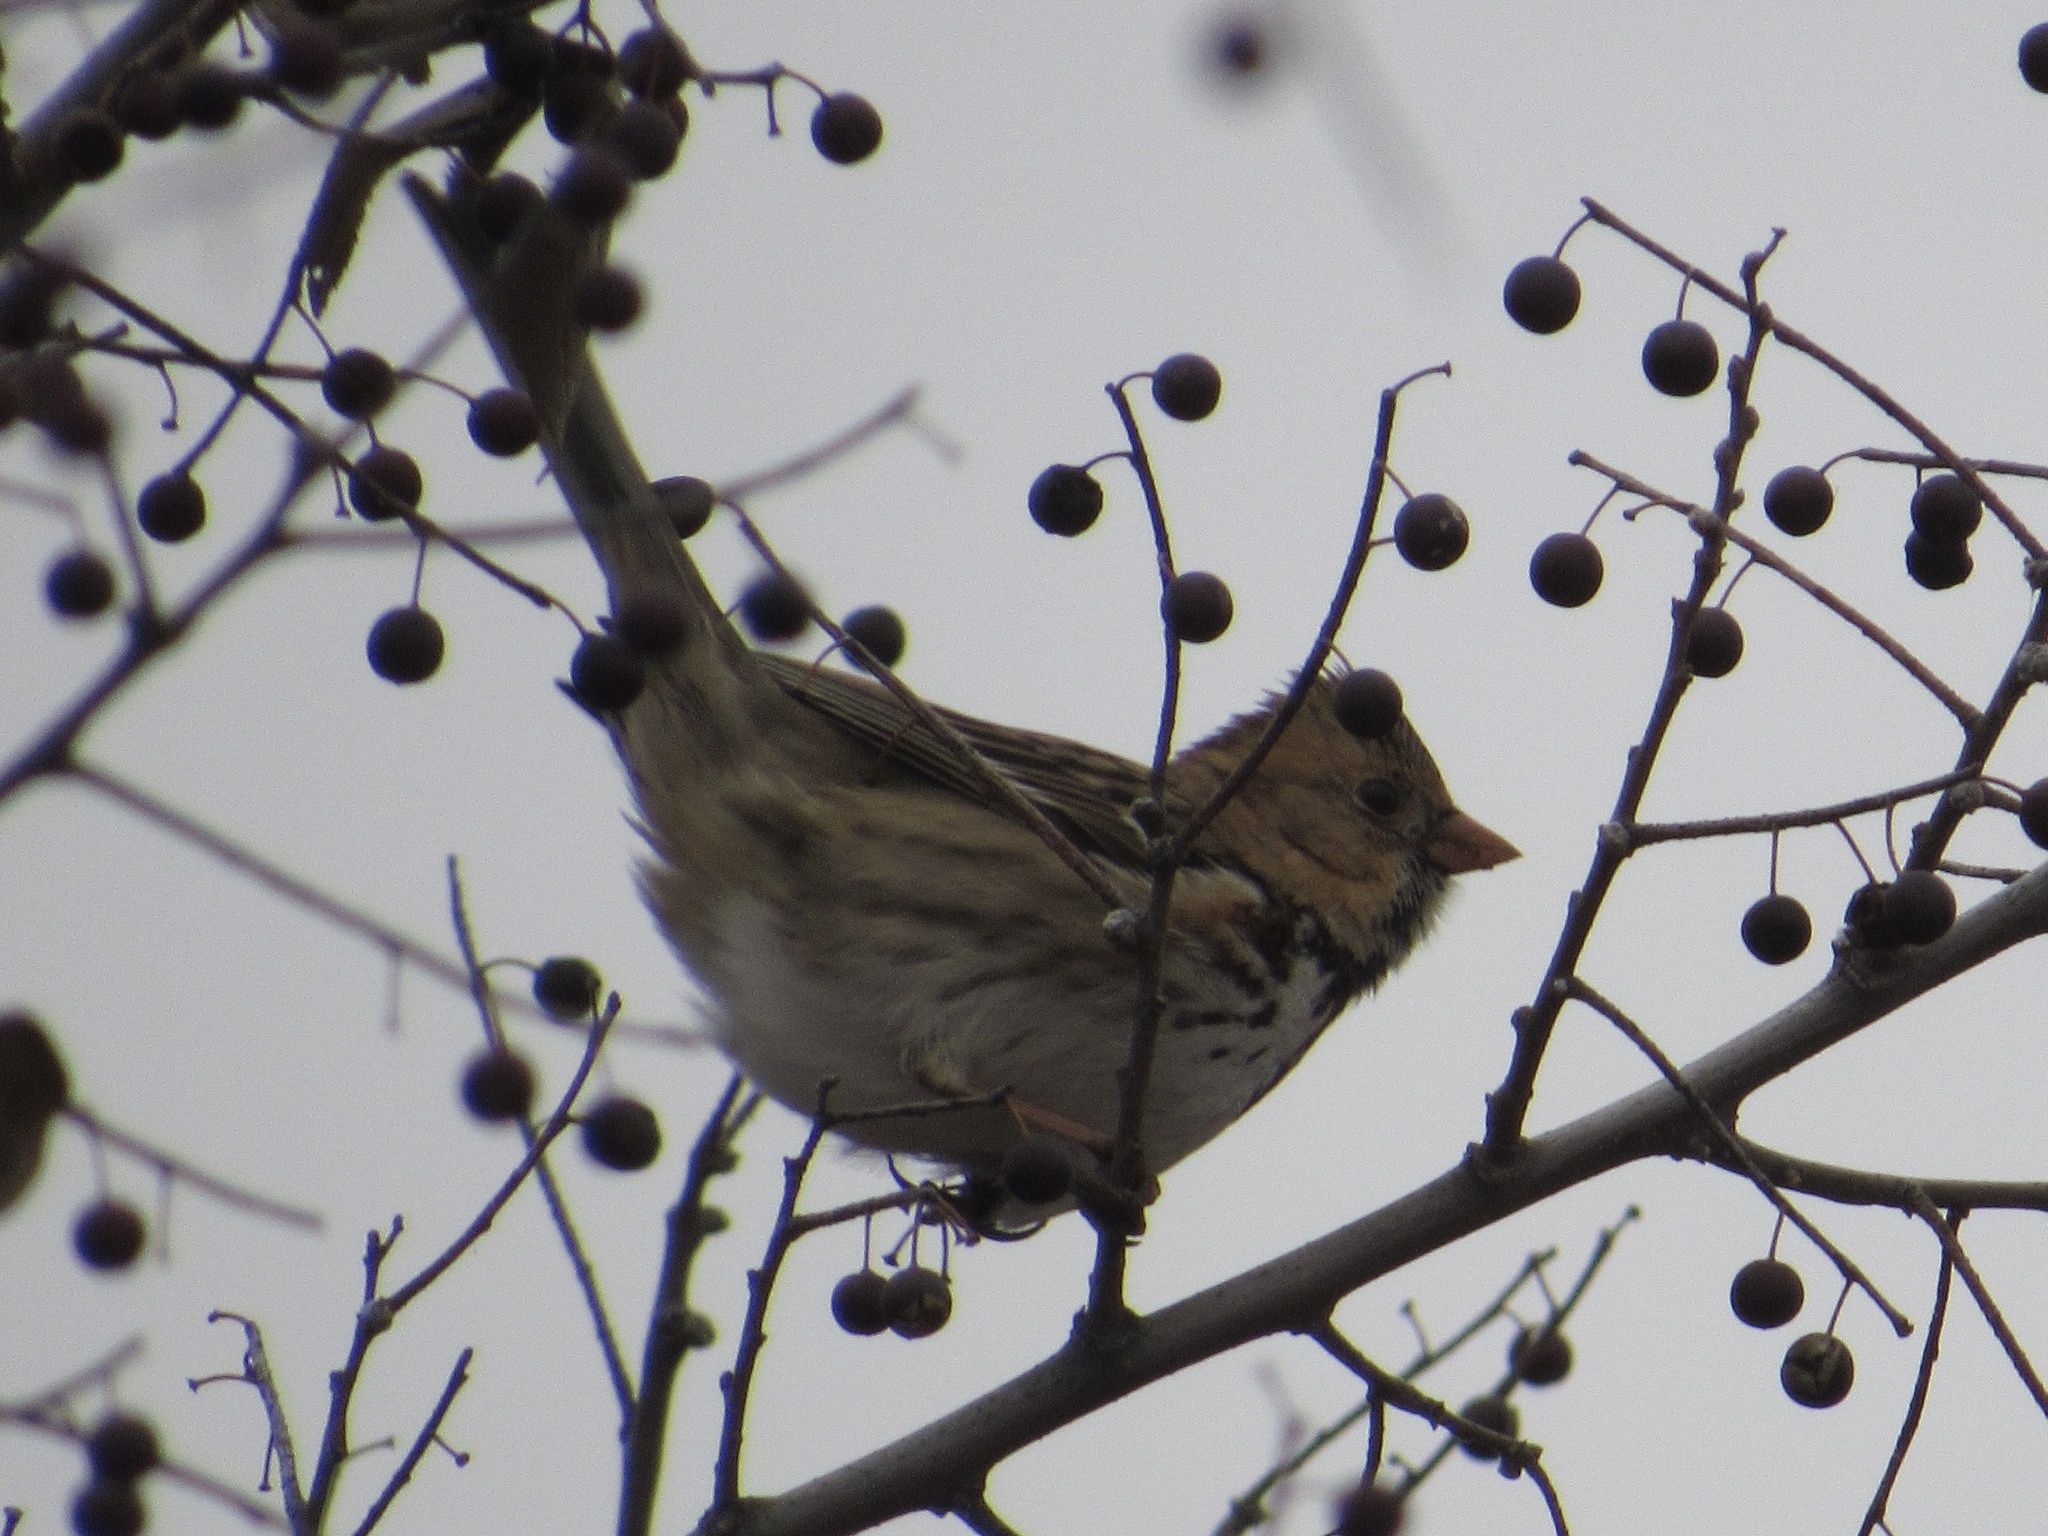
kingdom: Animalia
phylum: Chordata
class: Aves
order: Passeriformes
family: Passerellidae
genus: Zonotrichia
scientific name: Zonotrichia querula
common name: Harris's sparrow
